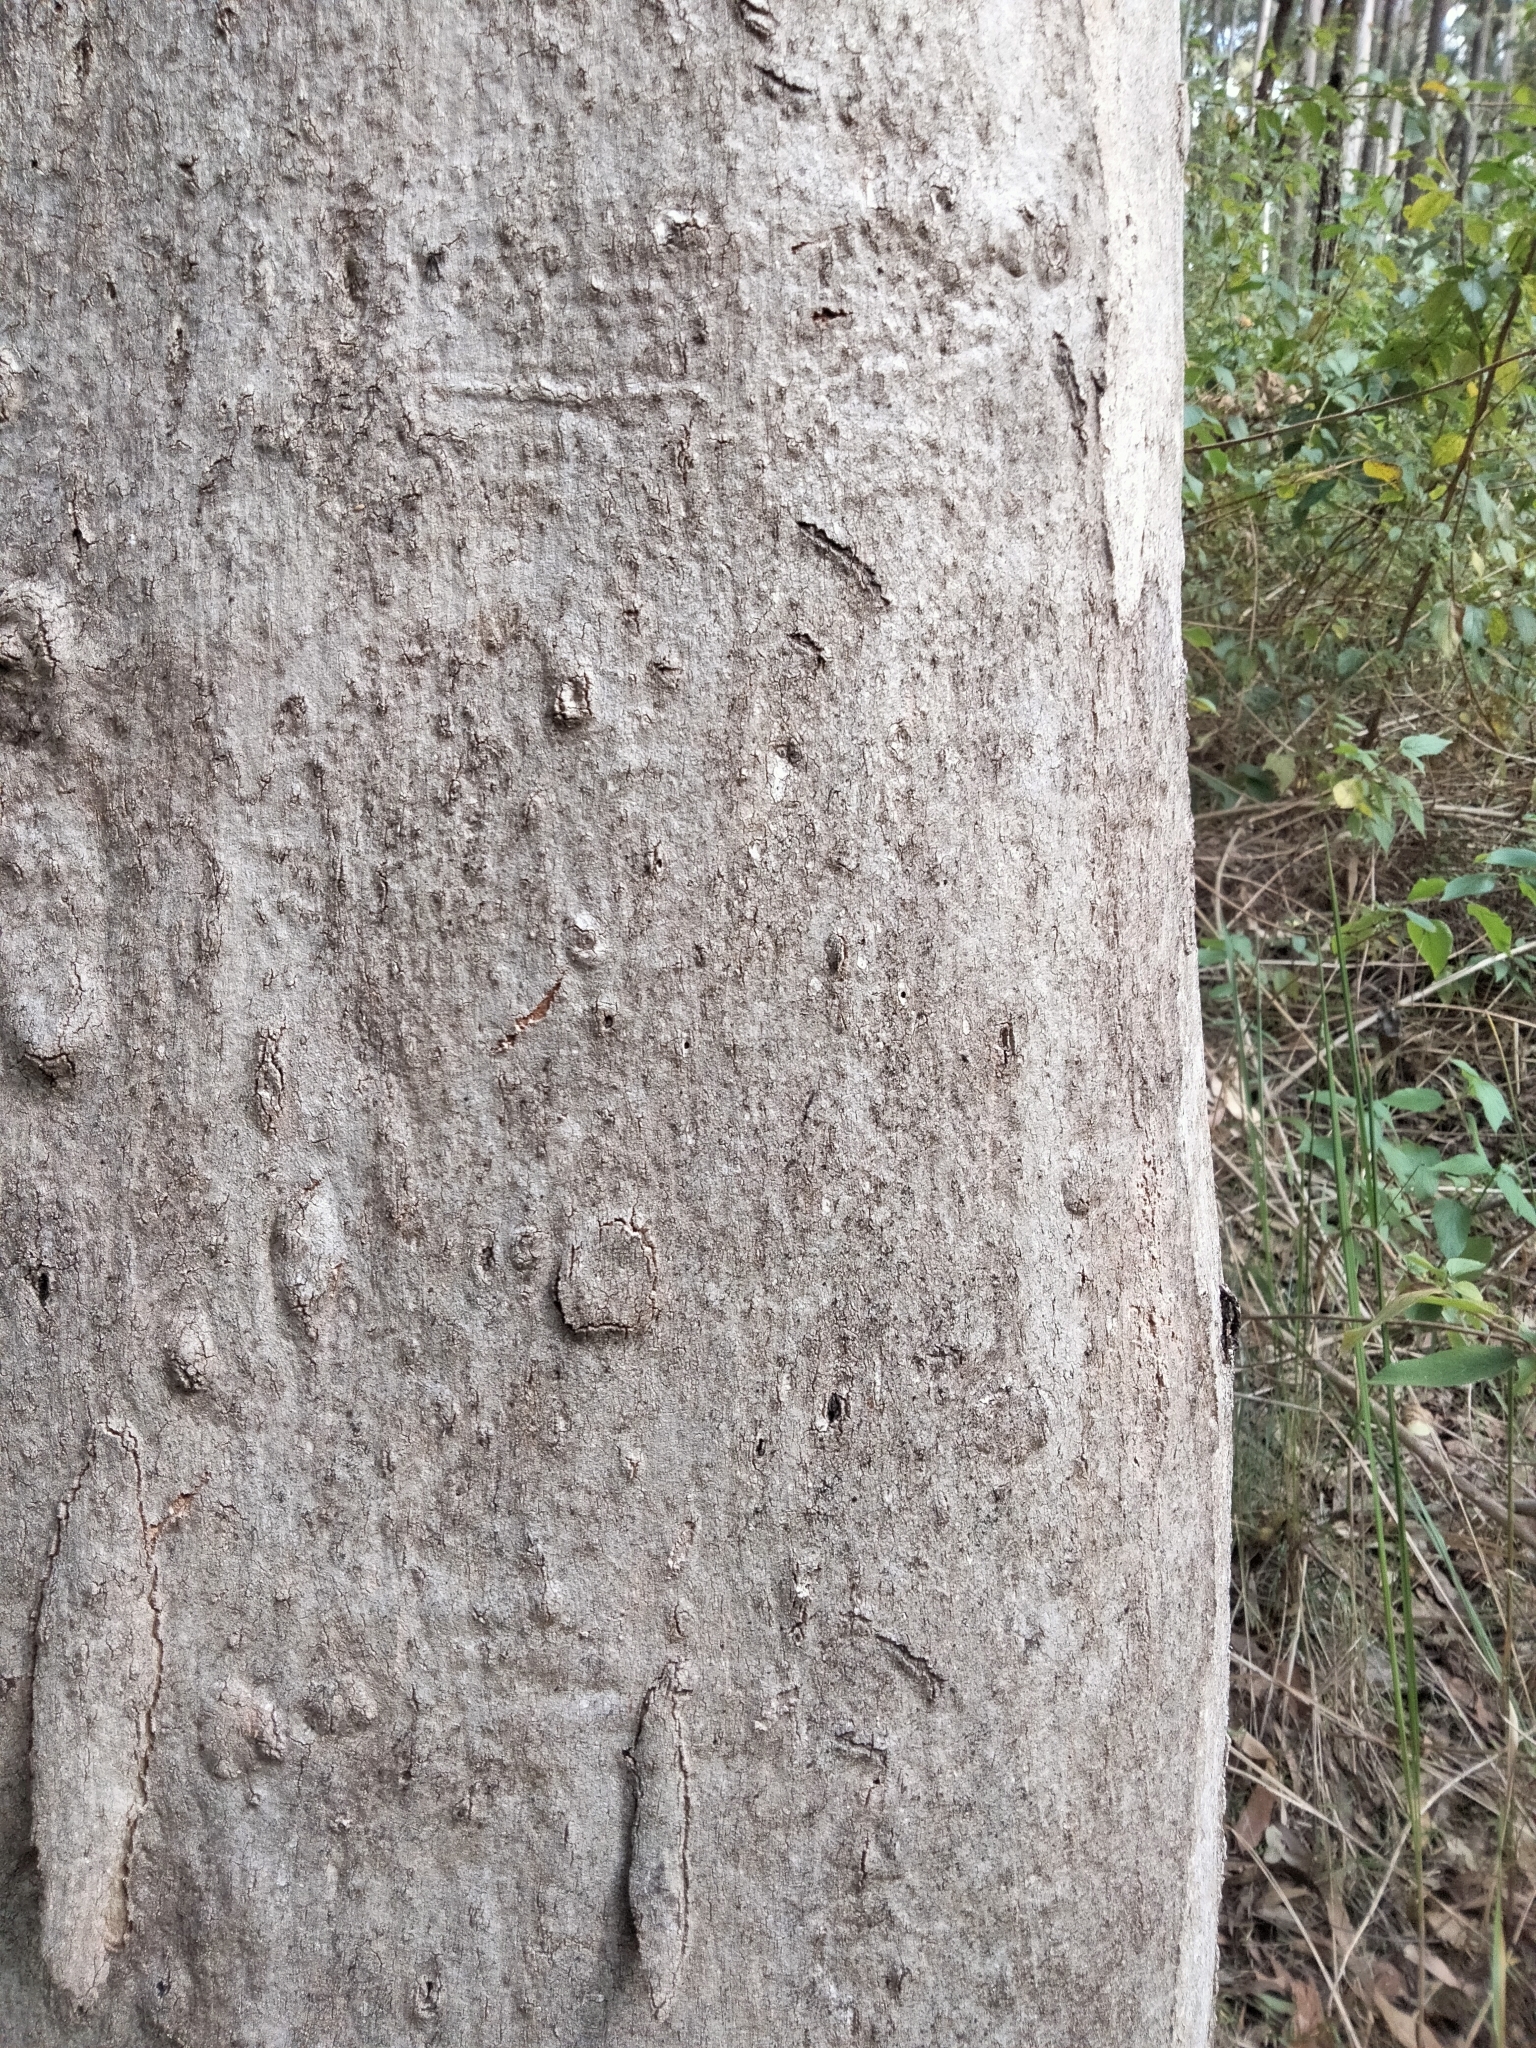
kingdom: Animalia
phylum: Chordata
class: Mammalia
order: Diprotodontia
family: Phascolarctidae
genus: Phascolarctos
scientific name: Phascolarctos cinereus
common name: Koala
